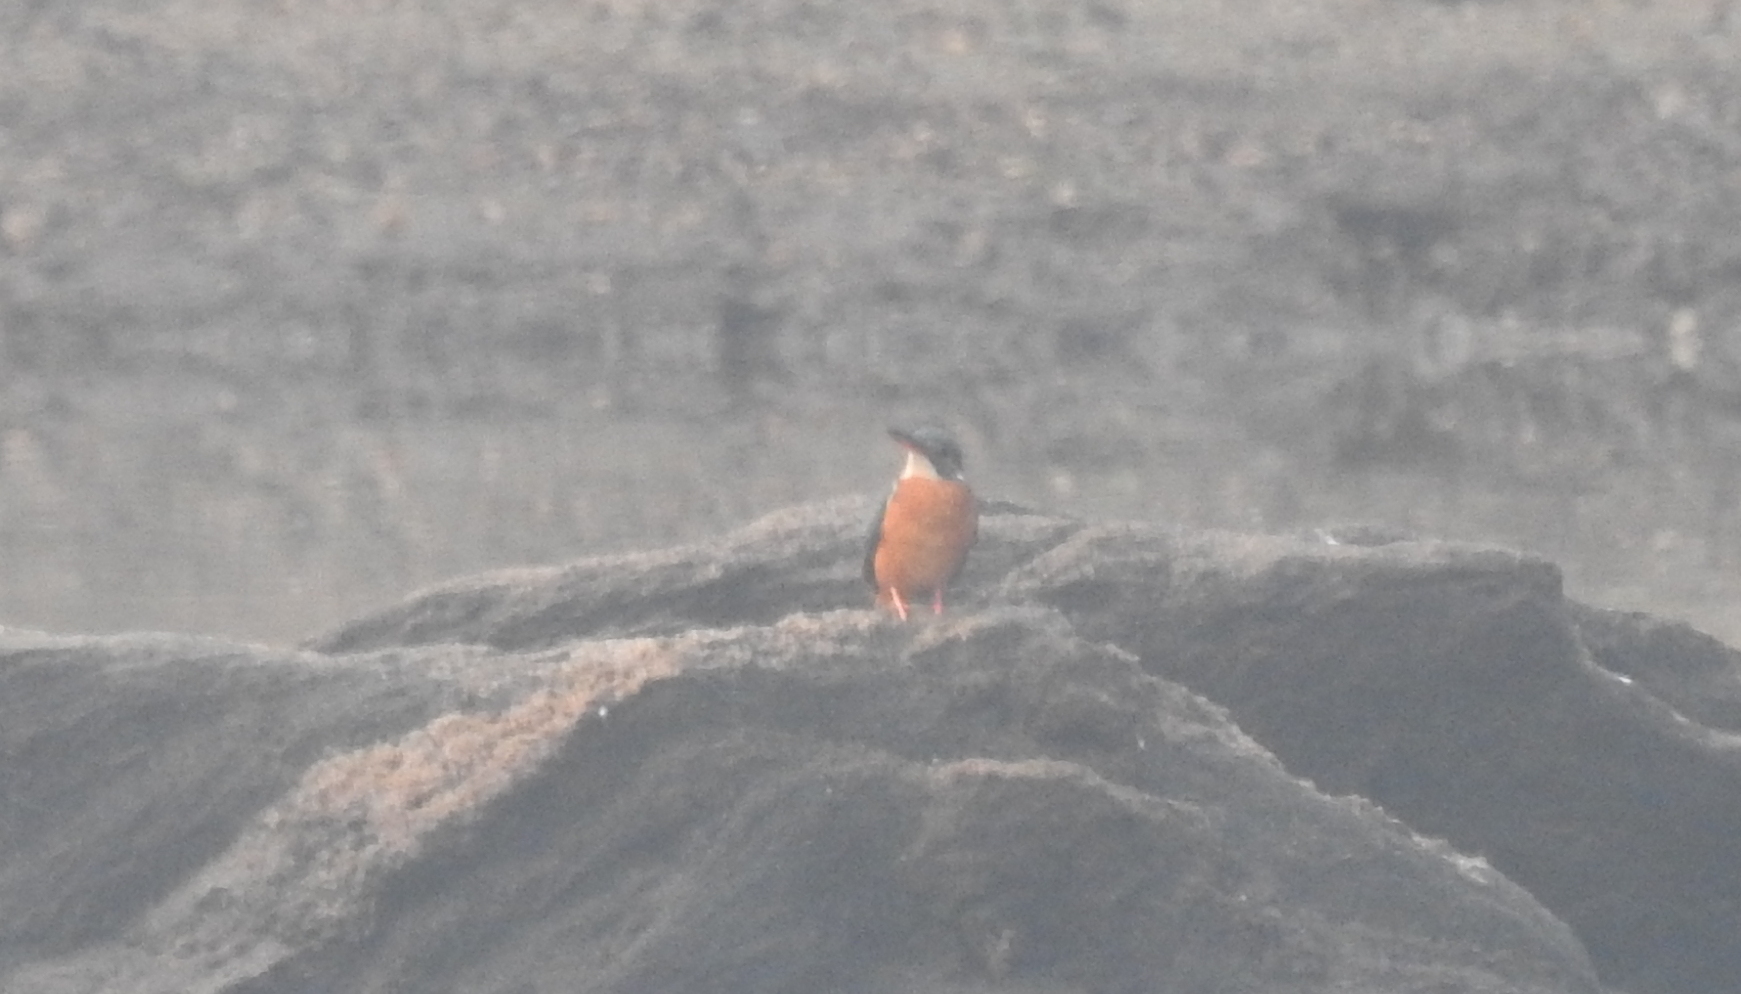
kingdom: Animalia
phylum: Chordata
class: Aves
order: Coraciiformes
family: Alcedinidae
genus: Alcedo
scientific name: Alcedo atthis
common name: Common kingfisher
